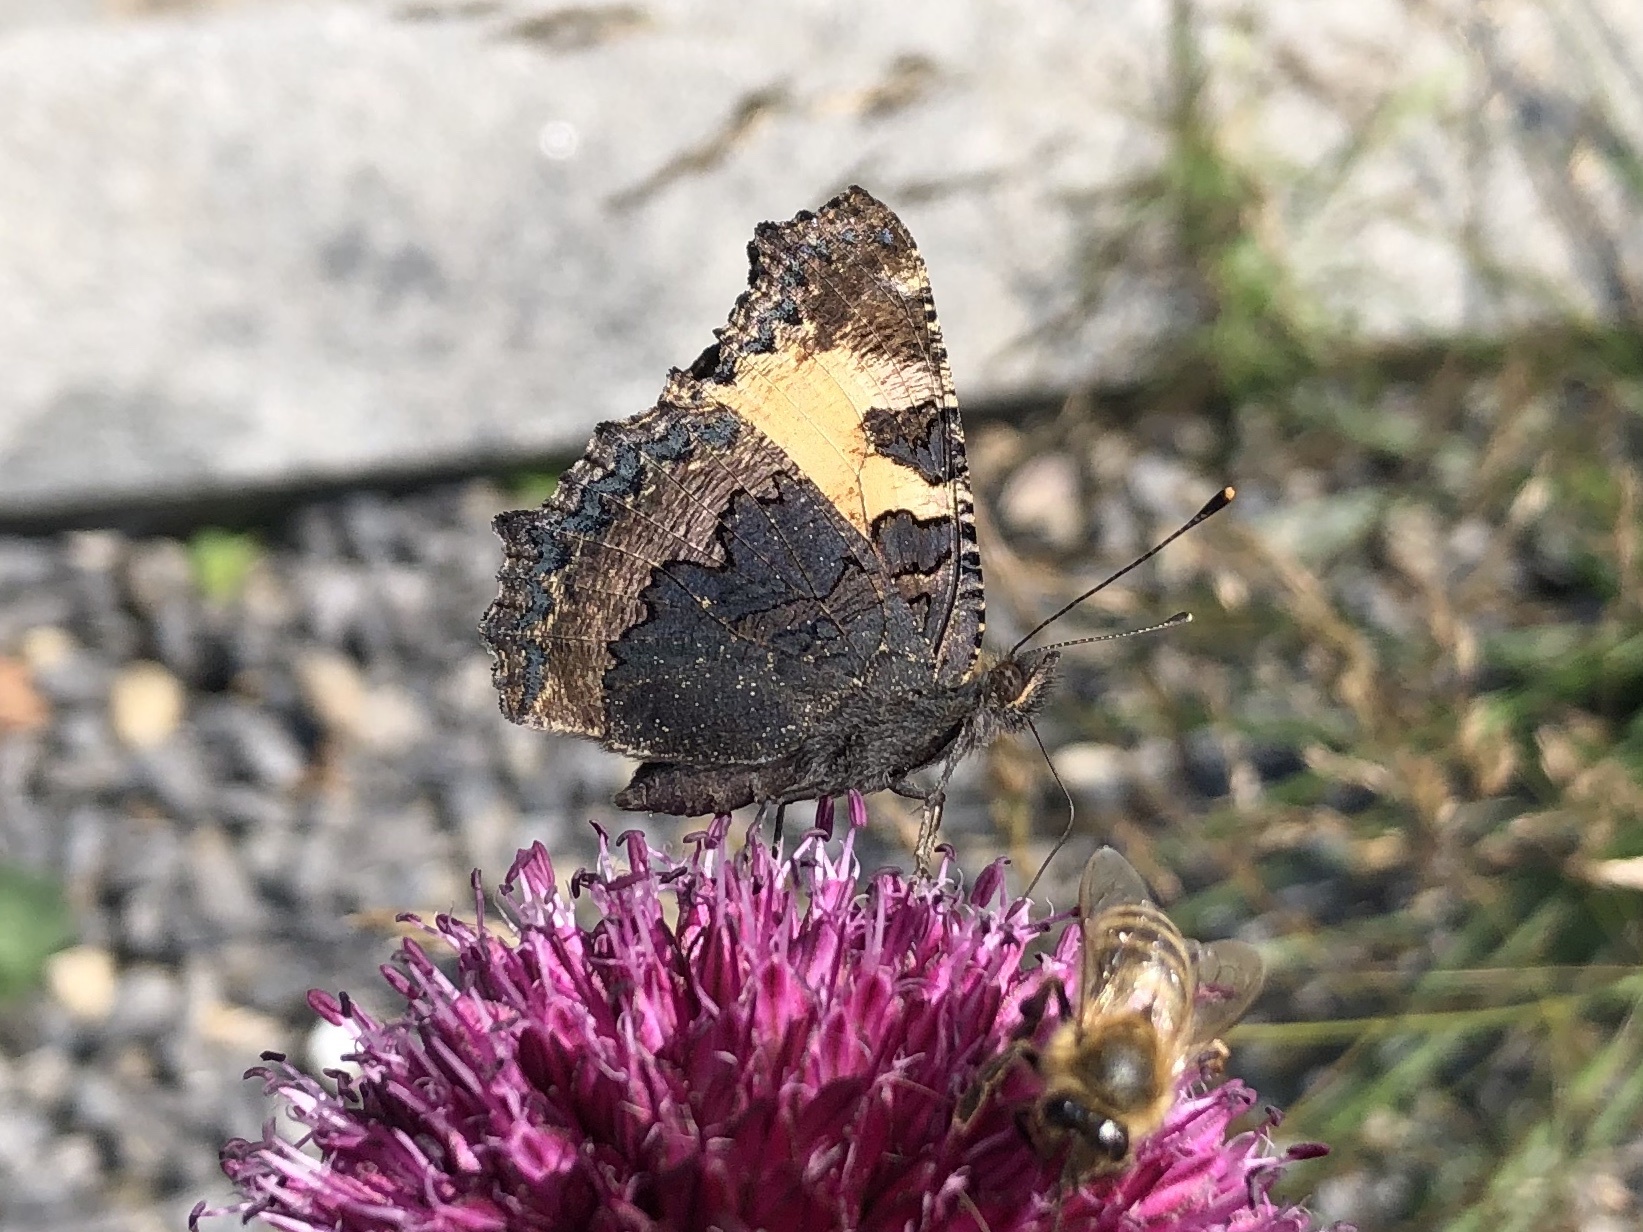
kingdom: Animalia
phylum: Arthropoda
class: Insecta
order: Lepidoptera
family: Nymphalidae
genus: Aglais
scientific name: Aglais urticae
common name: Small tortoiseshell
